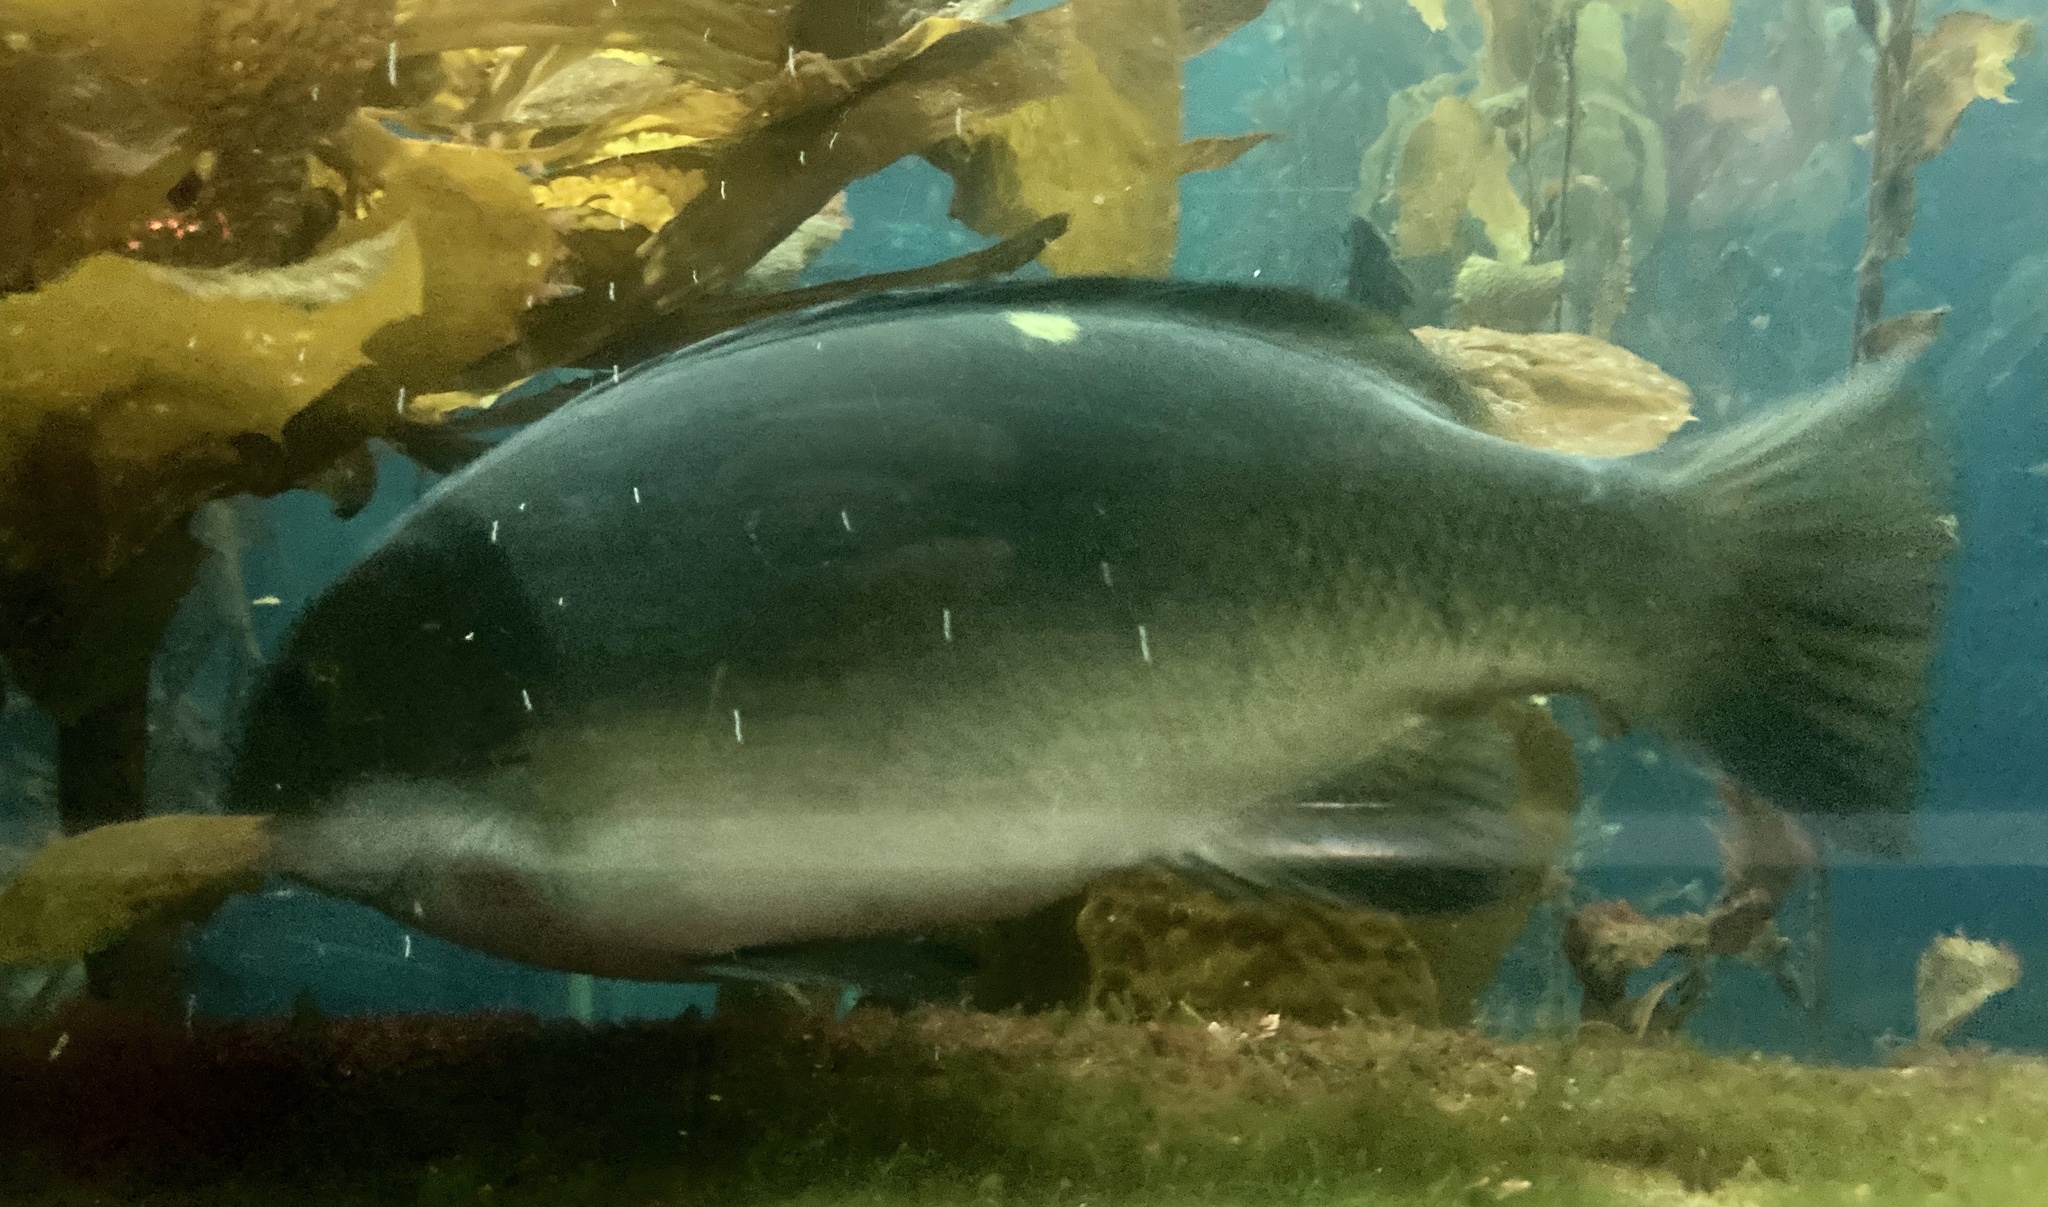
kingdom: Animalia
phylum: Chordata
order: Perciformes
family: Kyphosidae
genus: Girella
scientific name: Girella nigricans
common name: Opaleye
